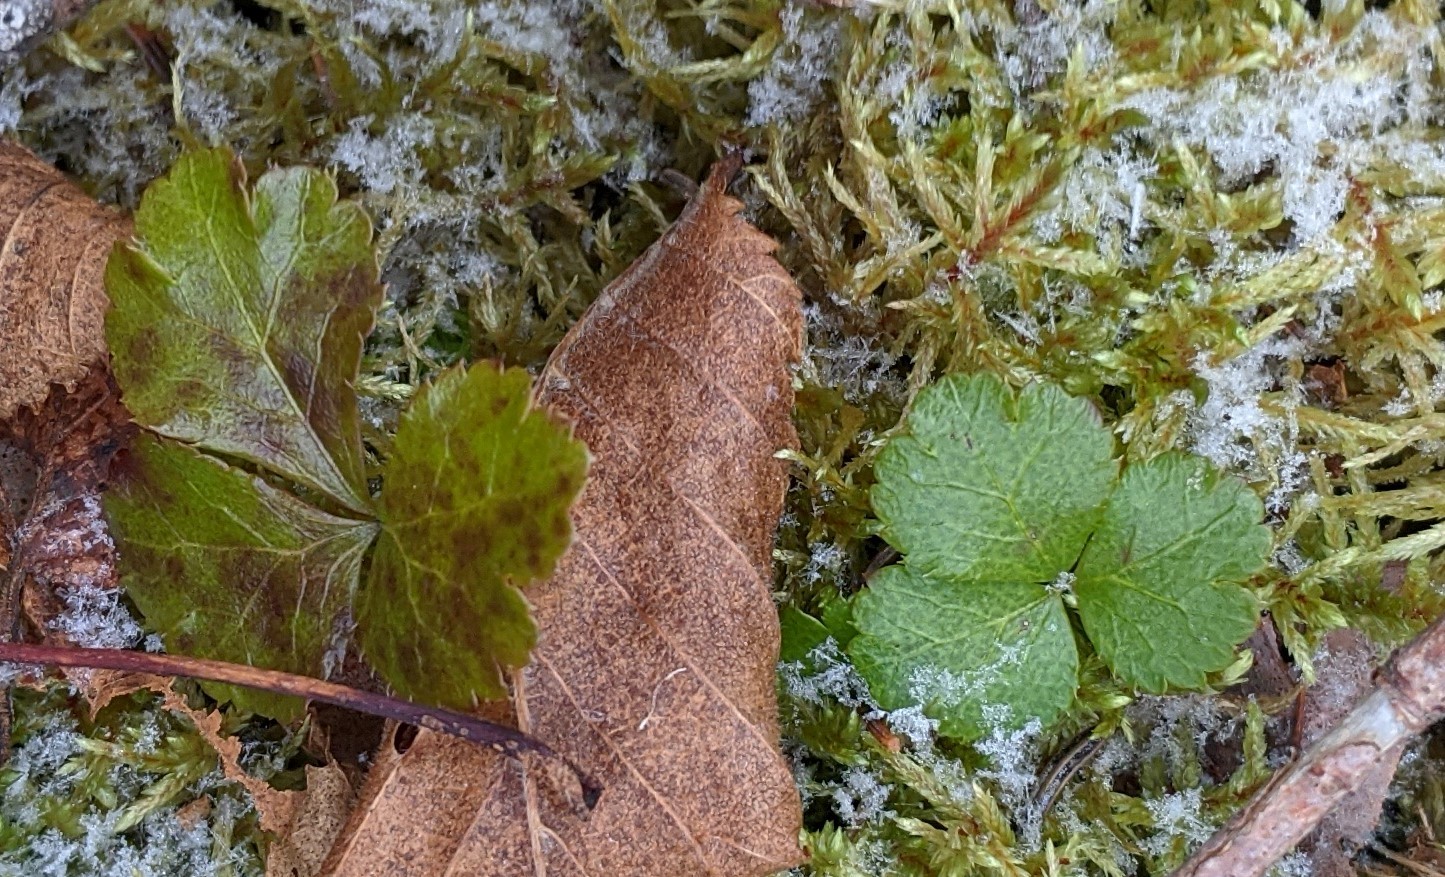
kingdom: Plantae
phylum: Tracheophyta
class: Magnoliopsida
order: Ranunculales
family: Ranunculaceae
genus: Coptis
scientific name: Coptis trifolia
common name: Canker-root
